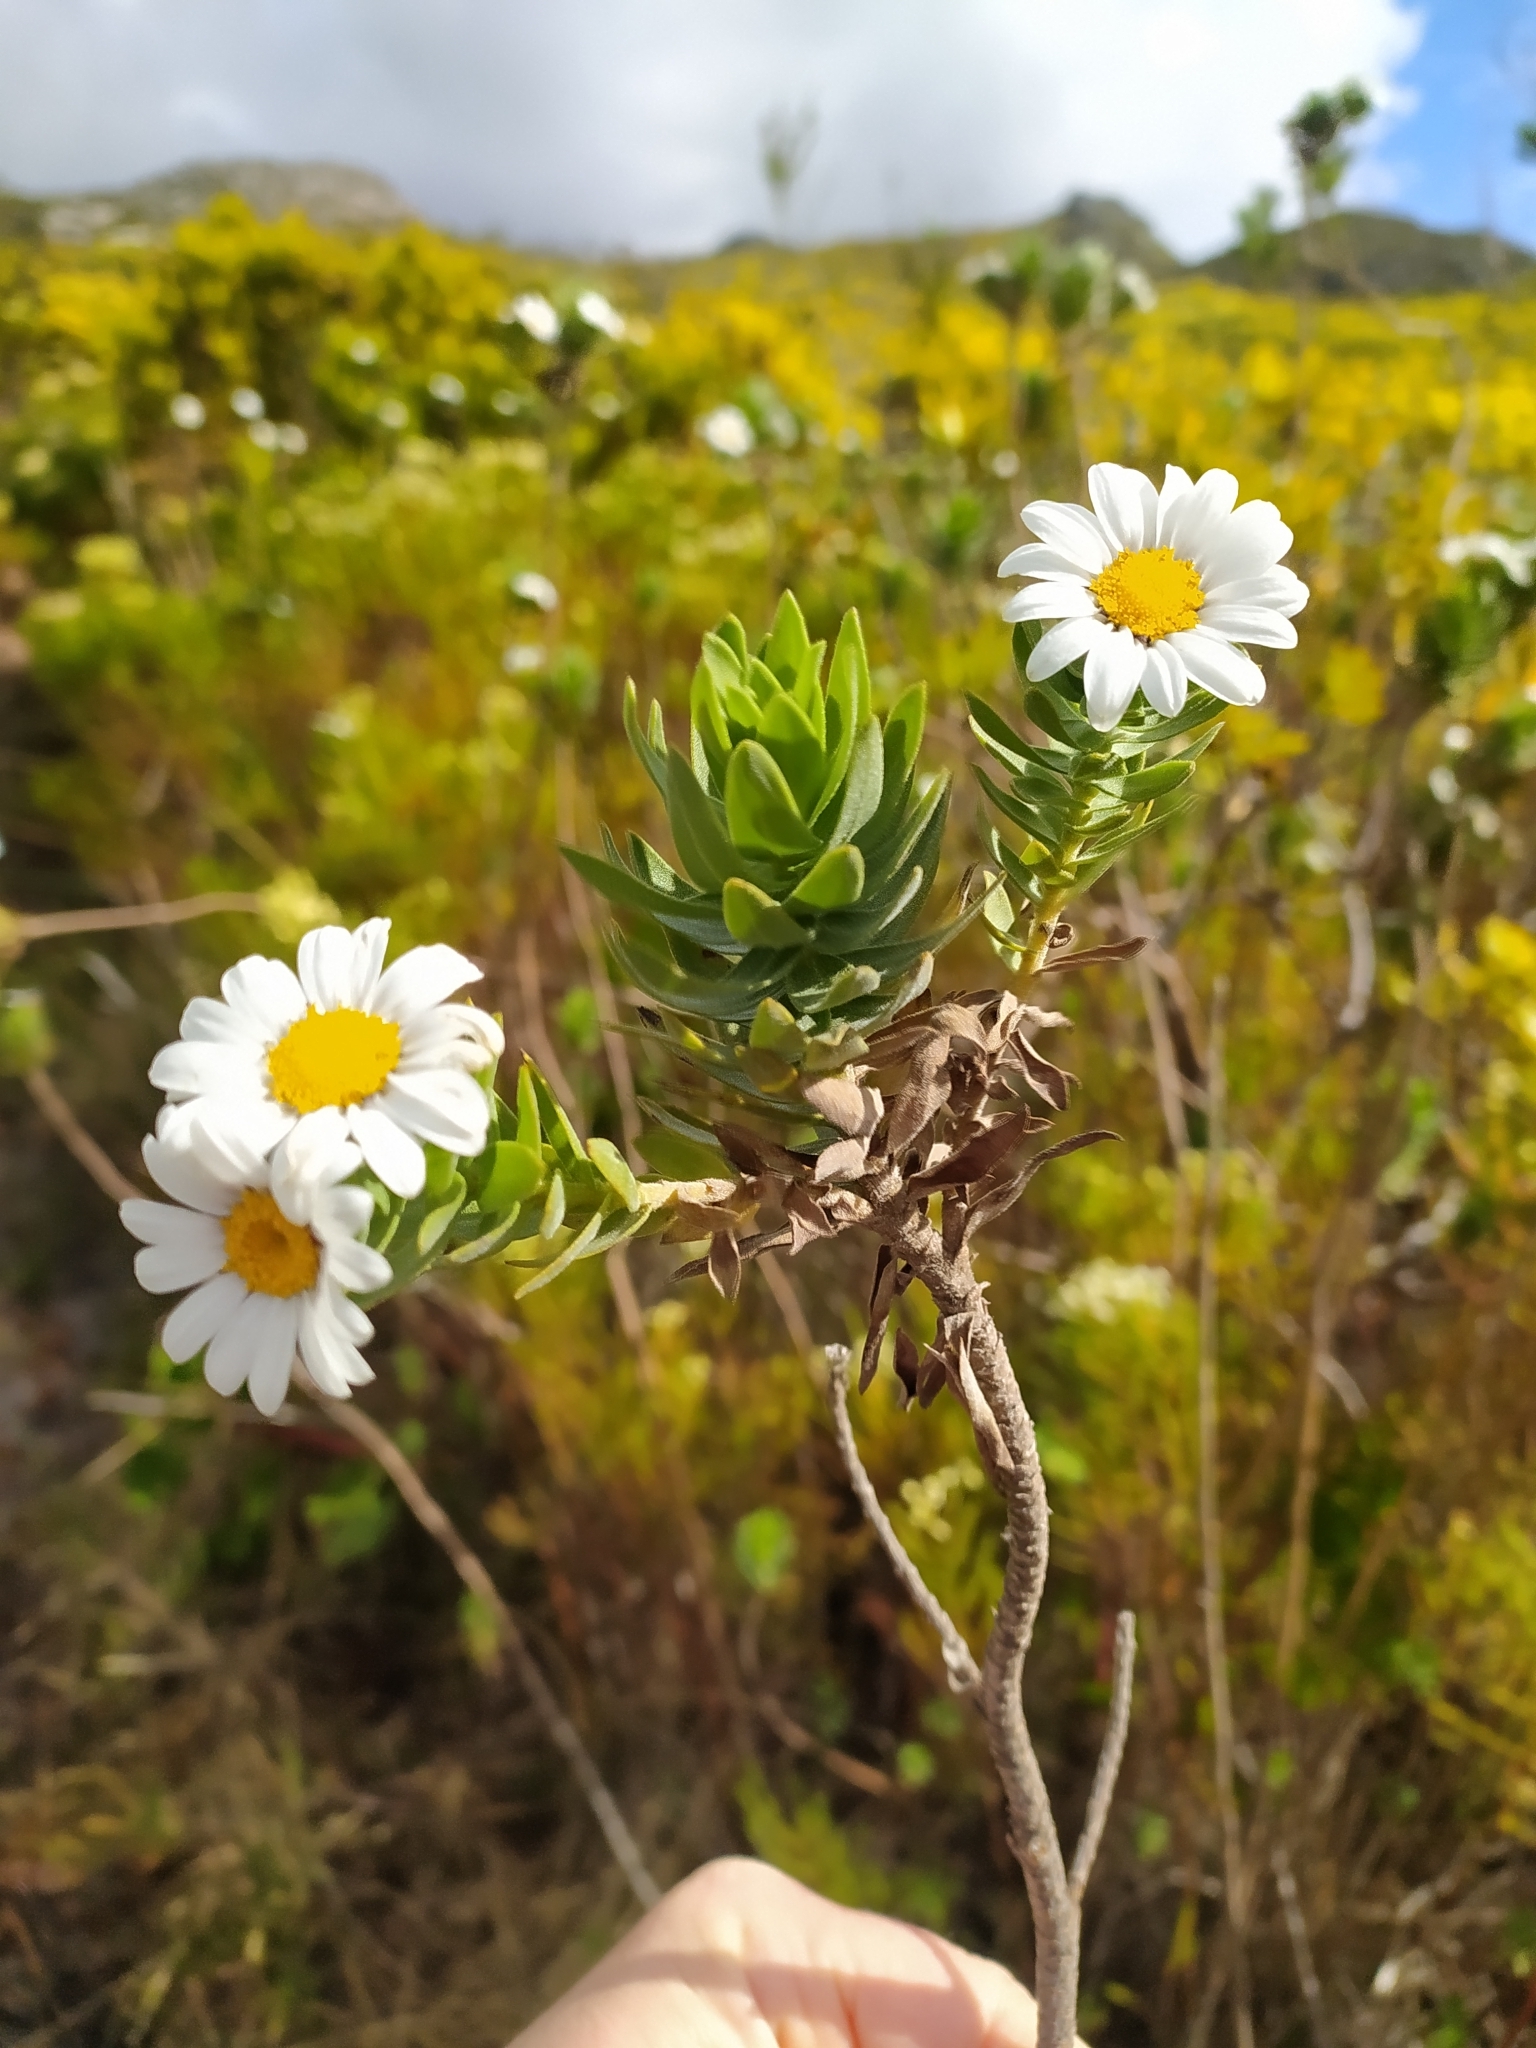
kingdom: Plantae
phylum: Tracheophyta
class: Magnoliopsida
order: Asterales
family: Asteraceae
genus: Osmitopsis
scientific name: Osmitopsis asteriscoides
